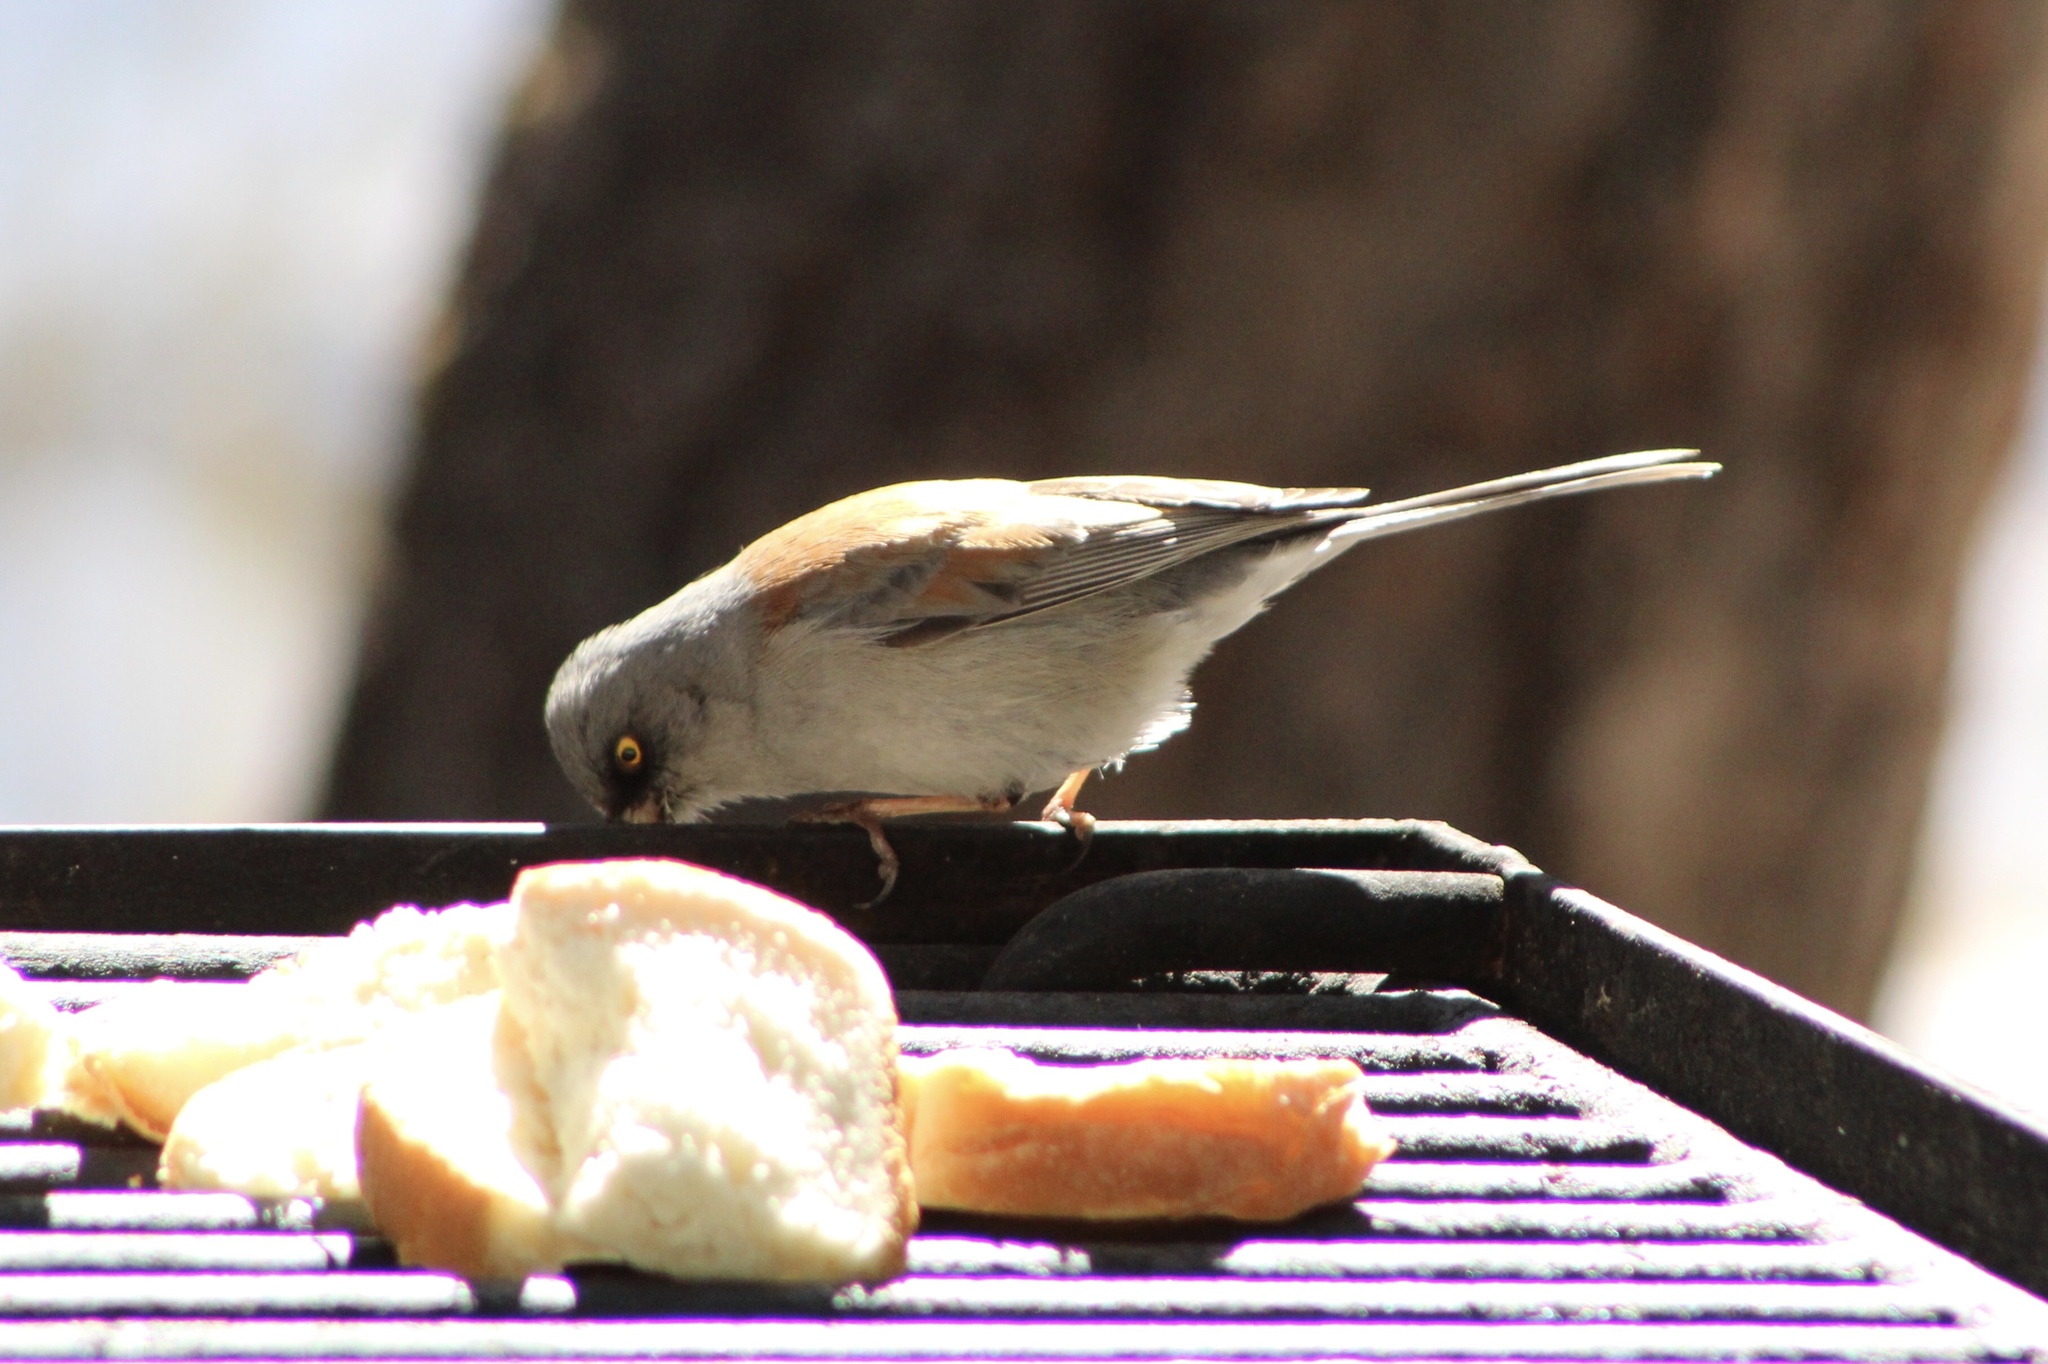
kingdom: Animalia
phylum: Chordata
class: Aves
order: Passeriformes
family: Passerellidae
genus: Junco
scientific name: Junco phaeonotus
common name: Yellow-eyed junco
